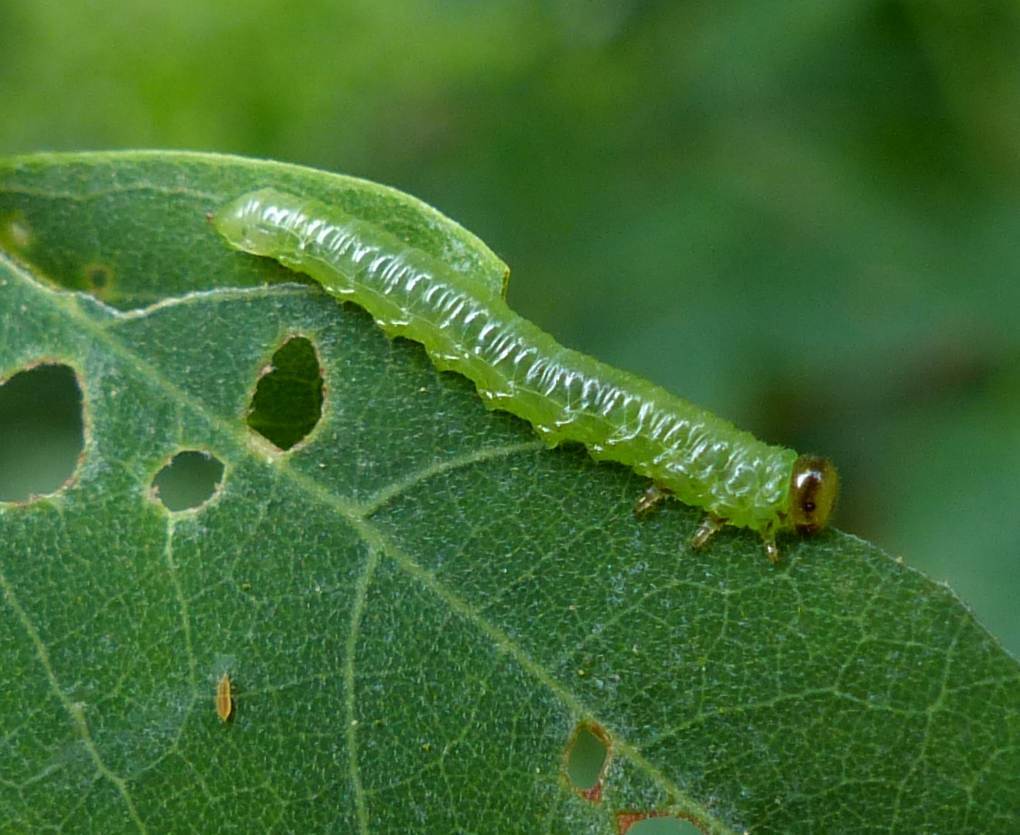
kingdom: Animalia
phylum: Arthropoda
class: Insecta
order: Hymenoptera
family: Tenthredinidae
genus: Euura
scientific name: Euura tibialis
